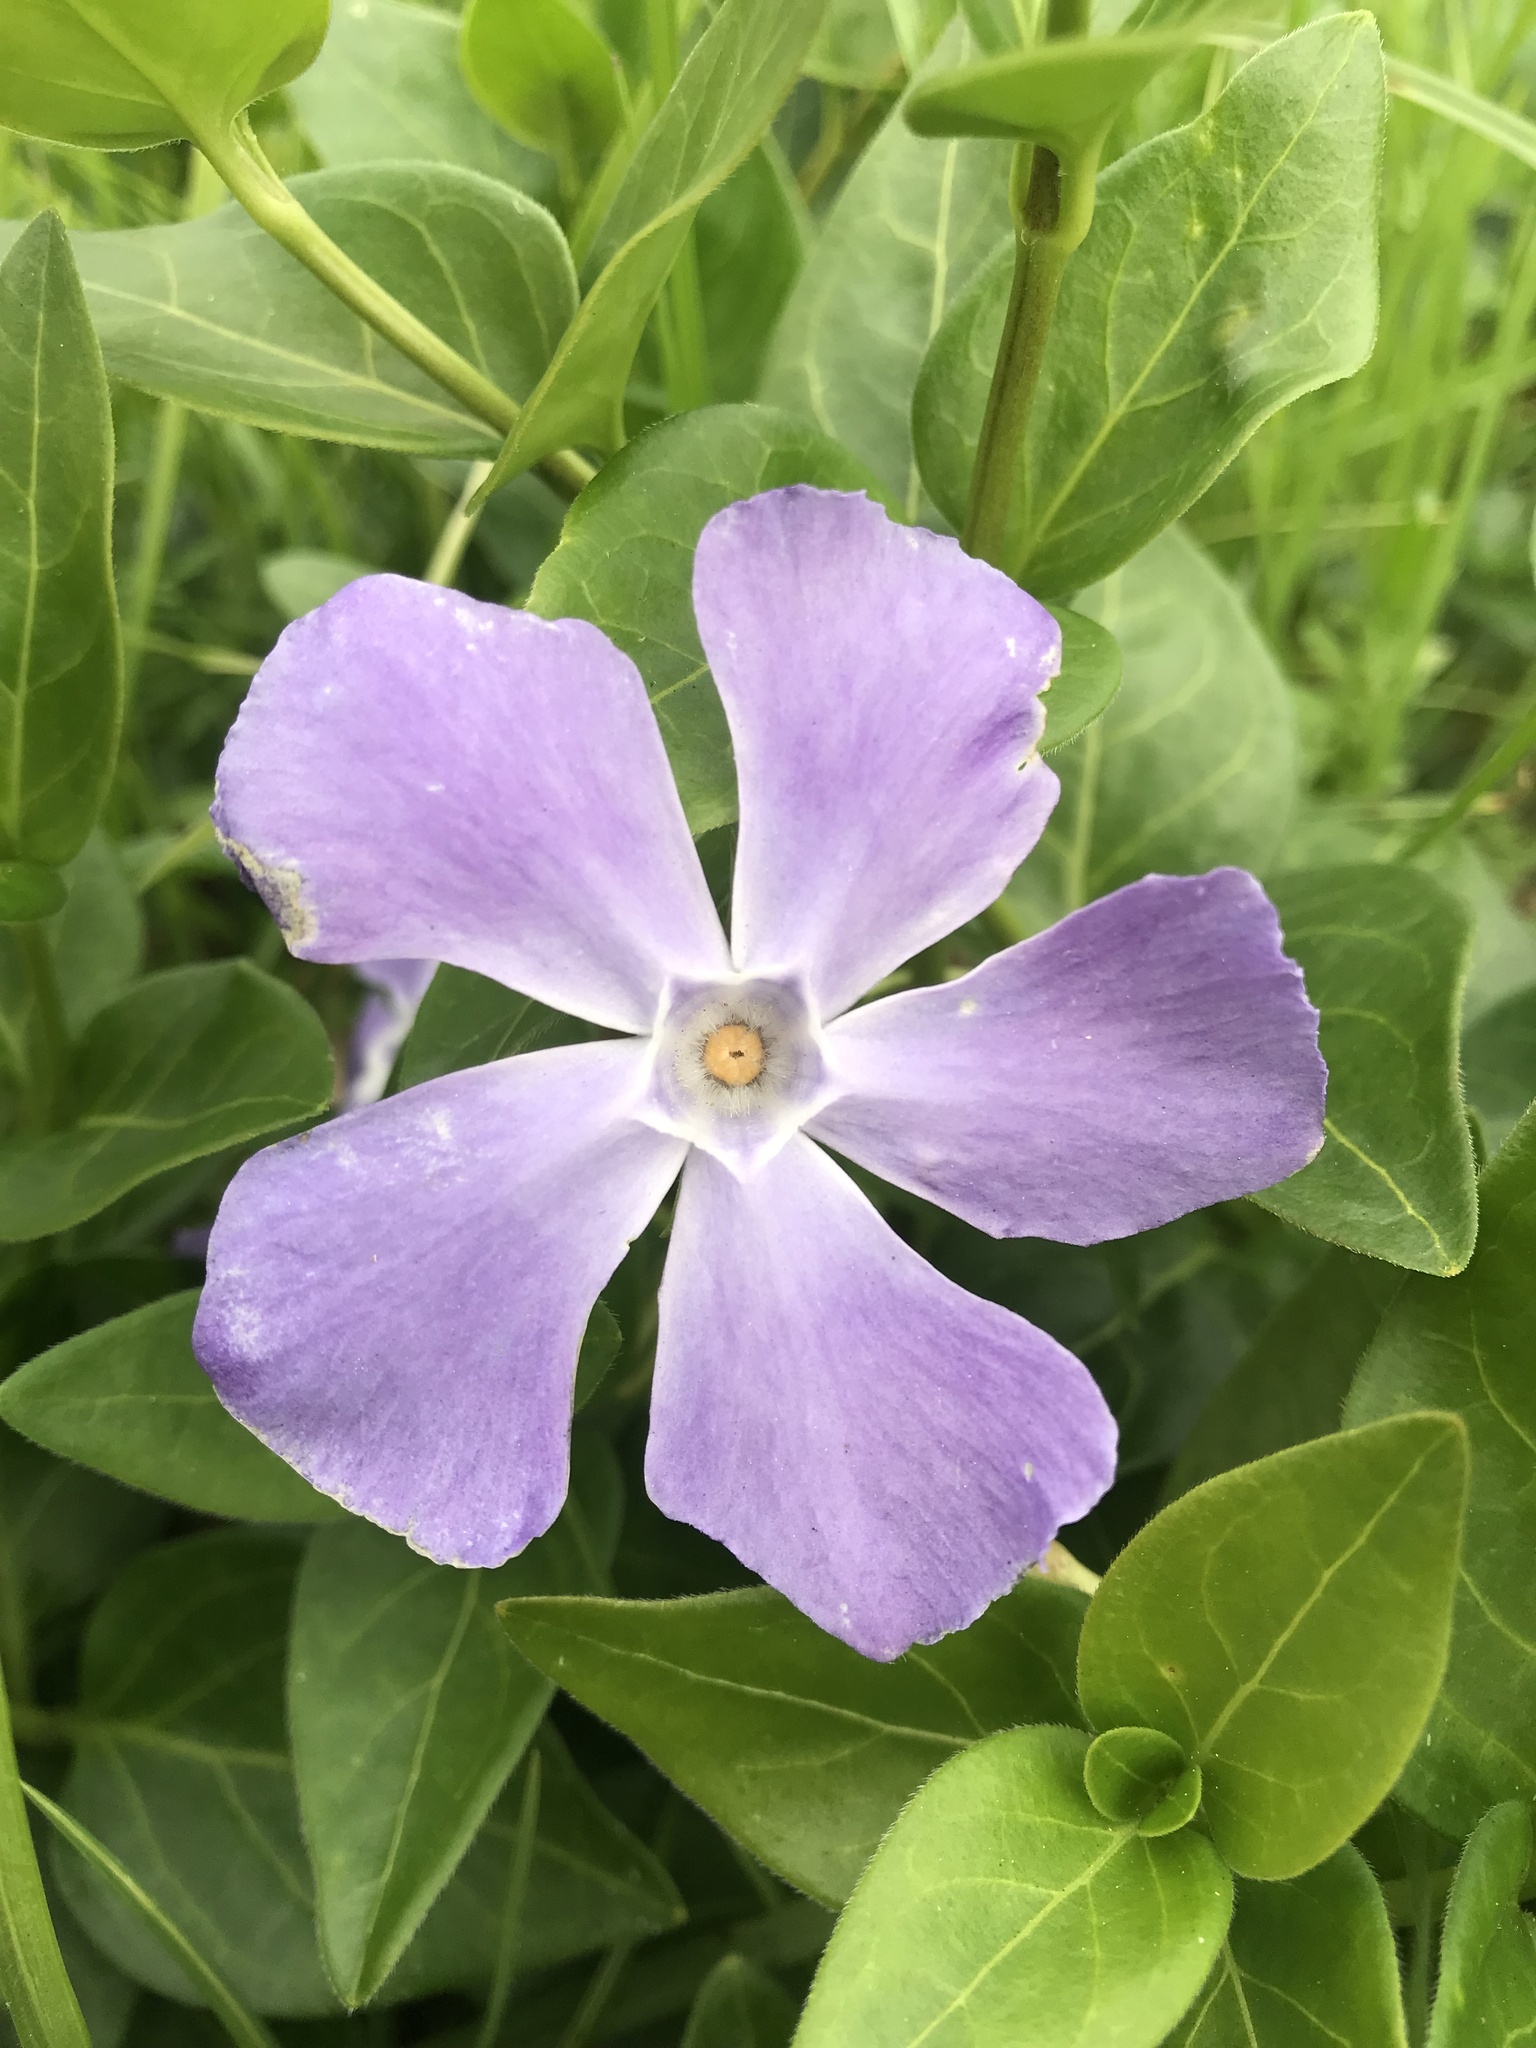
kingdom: Plantae
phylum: Tracheophyta
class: Magnoliopsida
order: Gentianales
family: Apocynaceae
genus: Vinca
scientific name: Vinca major
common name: Greater periwinkle
